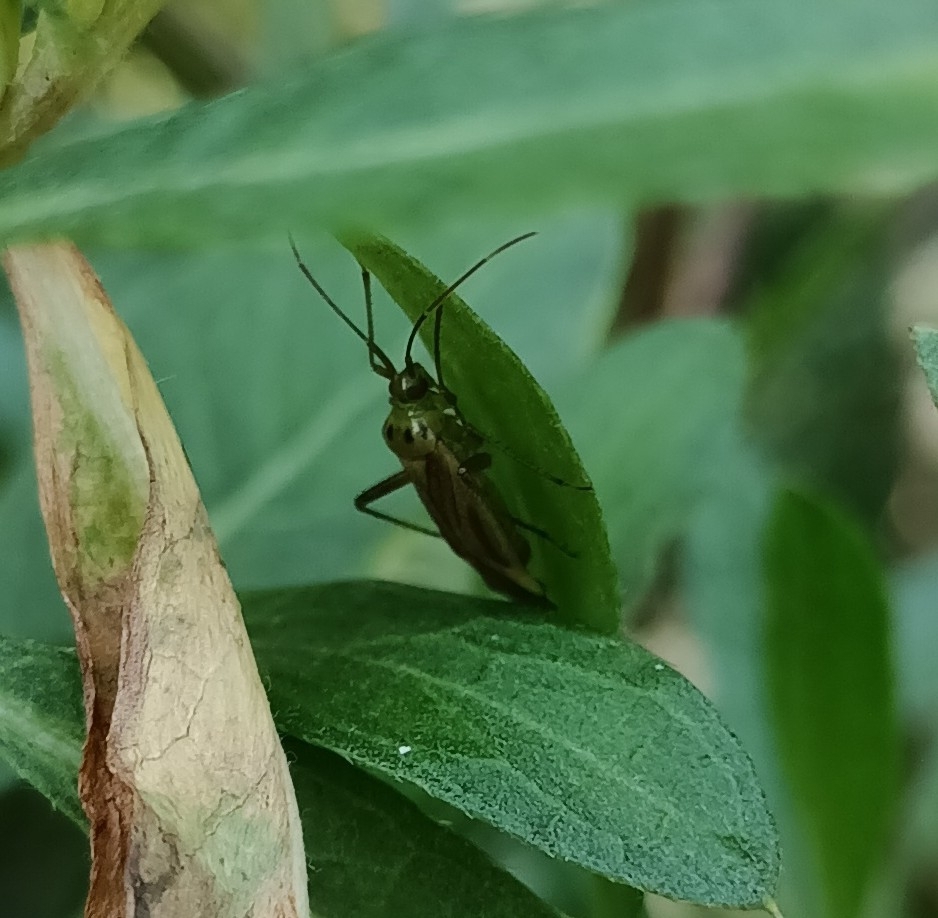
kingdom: Animalia
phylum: Arthropoda
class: Insecta
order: Hemiptera
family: Miridae
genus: Adelphocoris
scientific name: Adelphocoris quadripunctatus
